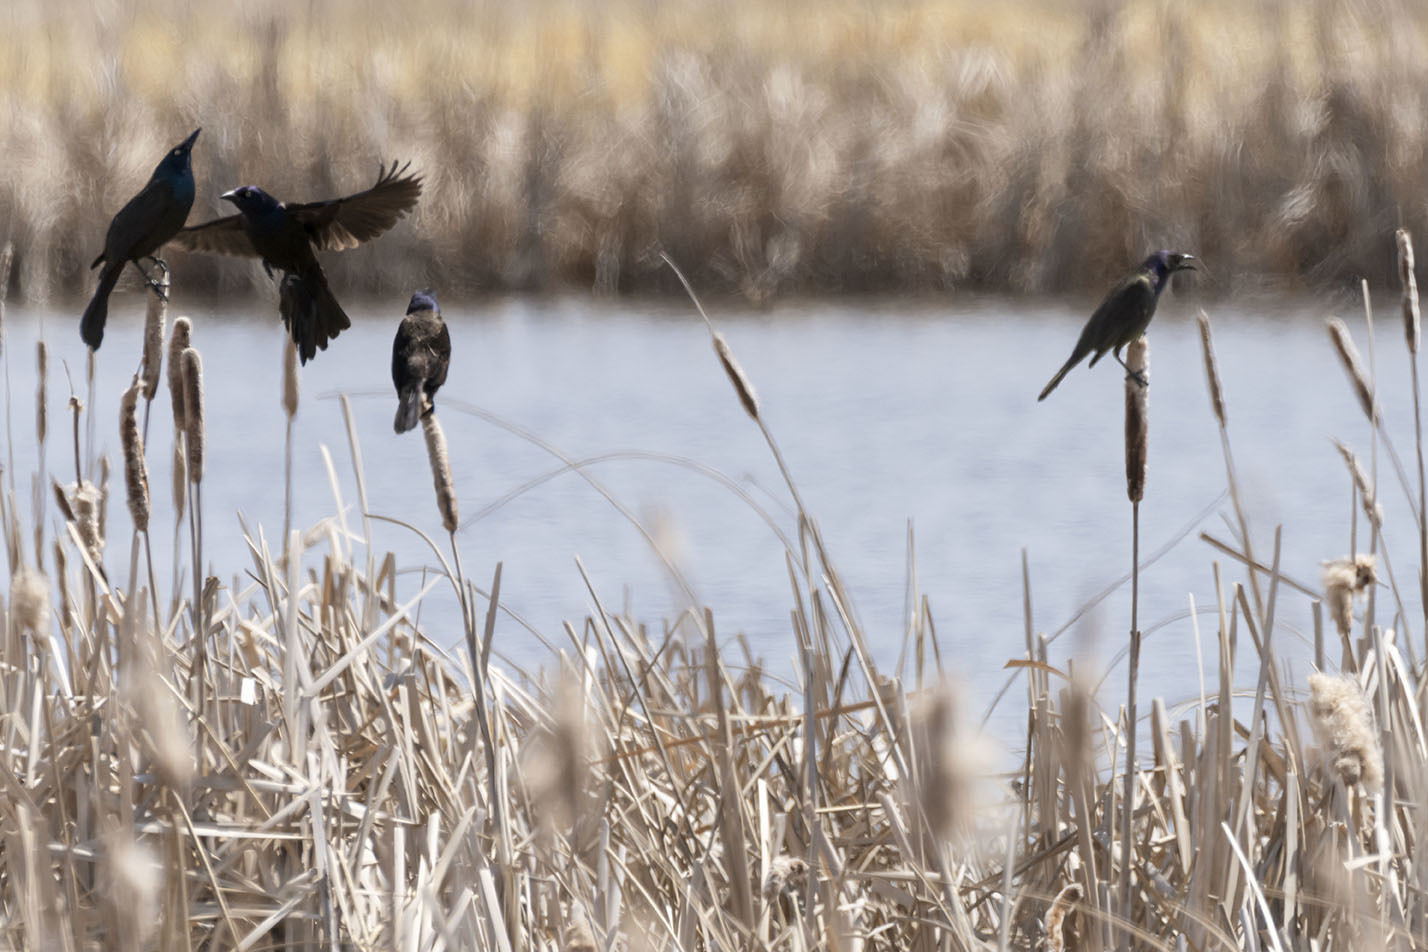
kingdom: Animalia
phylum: Chordata
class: Aves
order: Passeriformes
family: Icteridae
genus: Quiscalus
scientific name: Quiscalus quiscula
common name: Common grackle
